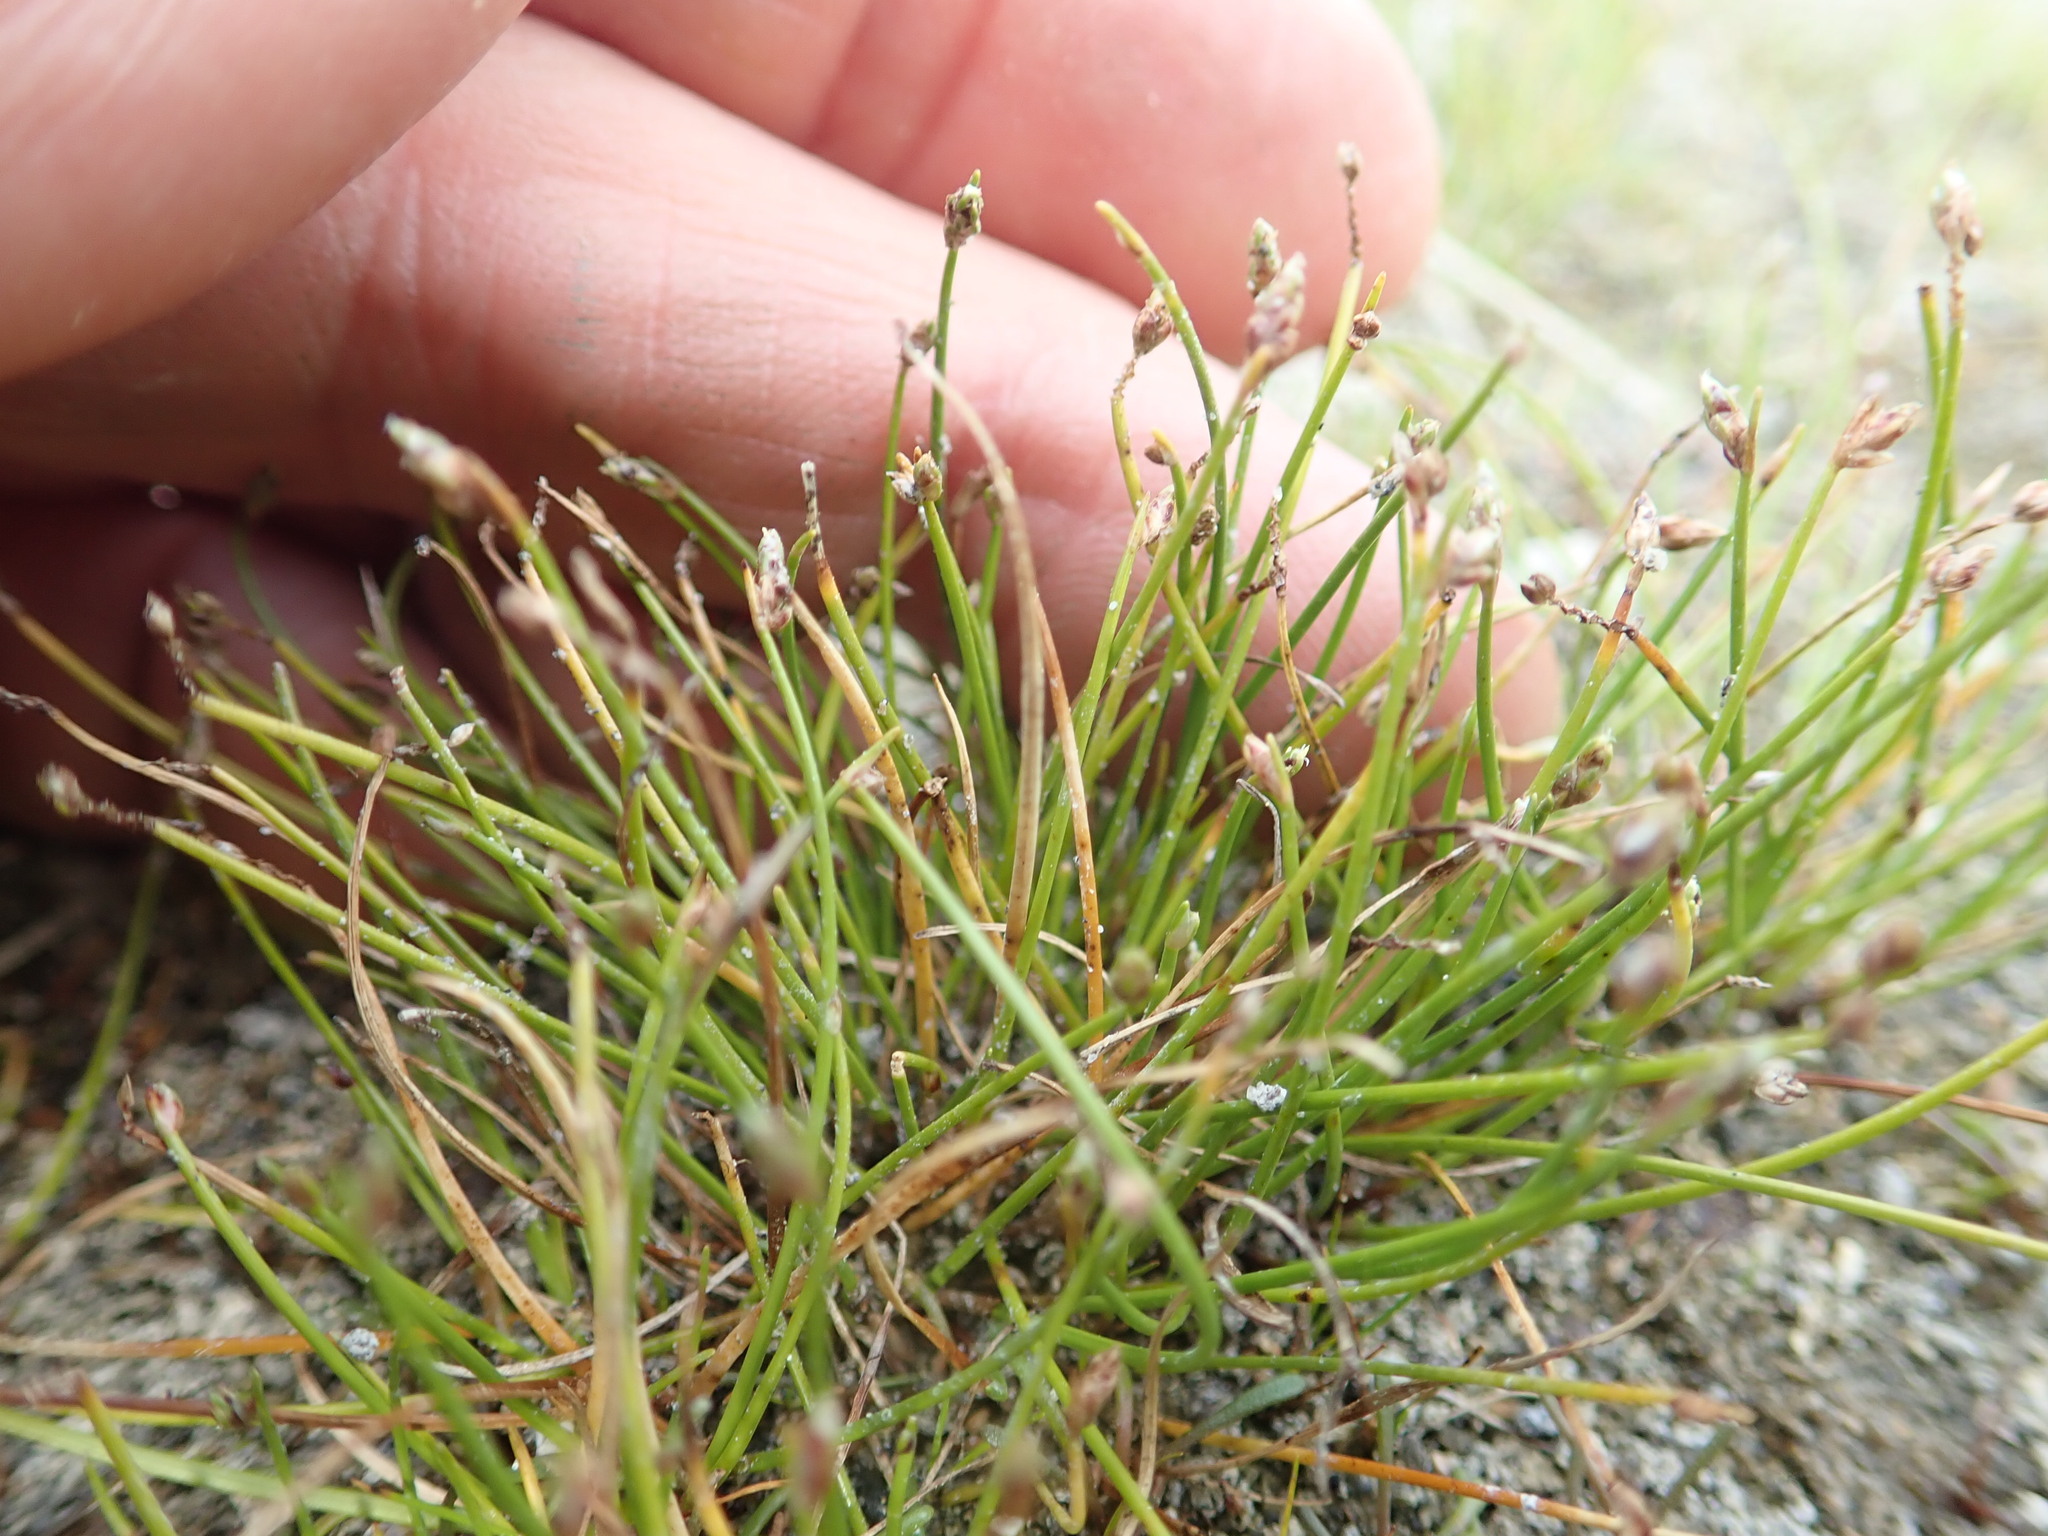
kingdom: Plantae
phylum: Tracheophyta
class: Liliopsida
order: Poales
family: Cyperaceae
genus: Isolepis
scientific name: Isolepis cernua
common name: Slender club-rush
